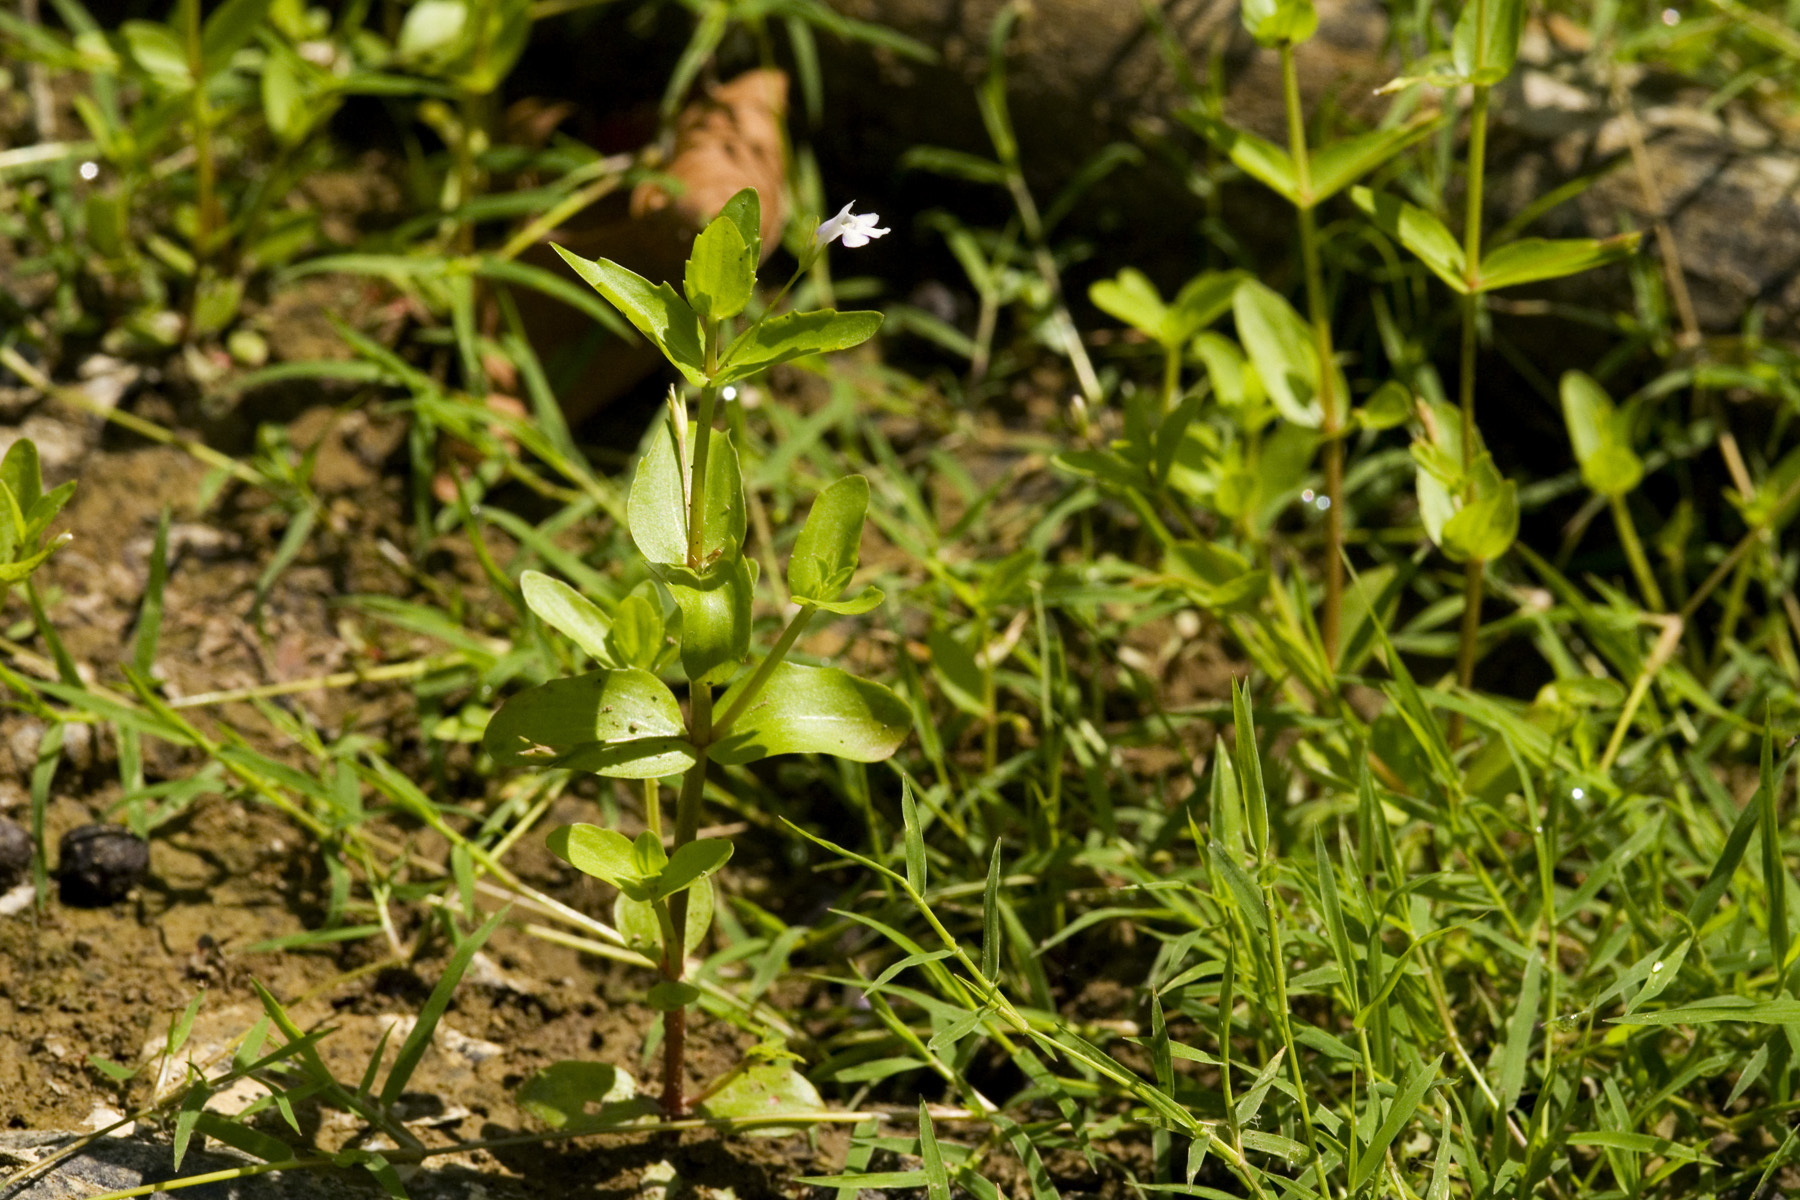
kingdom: Plantae
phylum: Tracheophyta
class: Magnoliopsida
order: Lamiales
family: Linderniaceae
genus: Lindernia
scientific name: Lindernia dubia
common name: Annual false pimpernel
